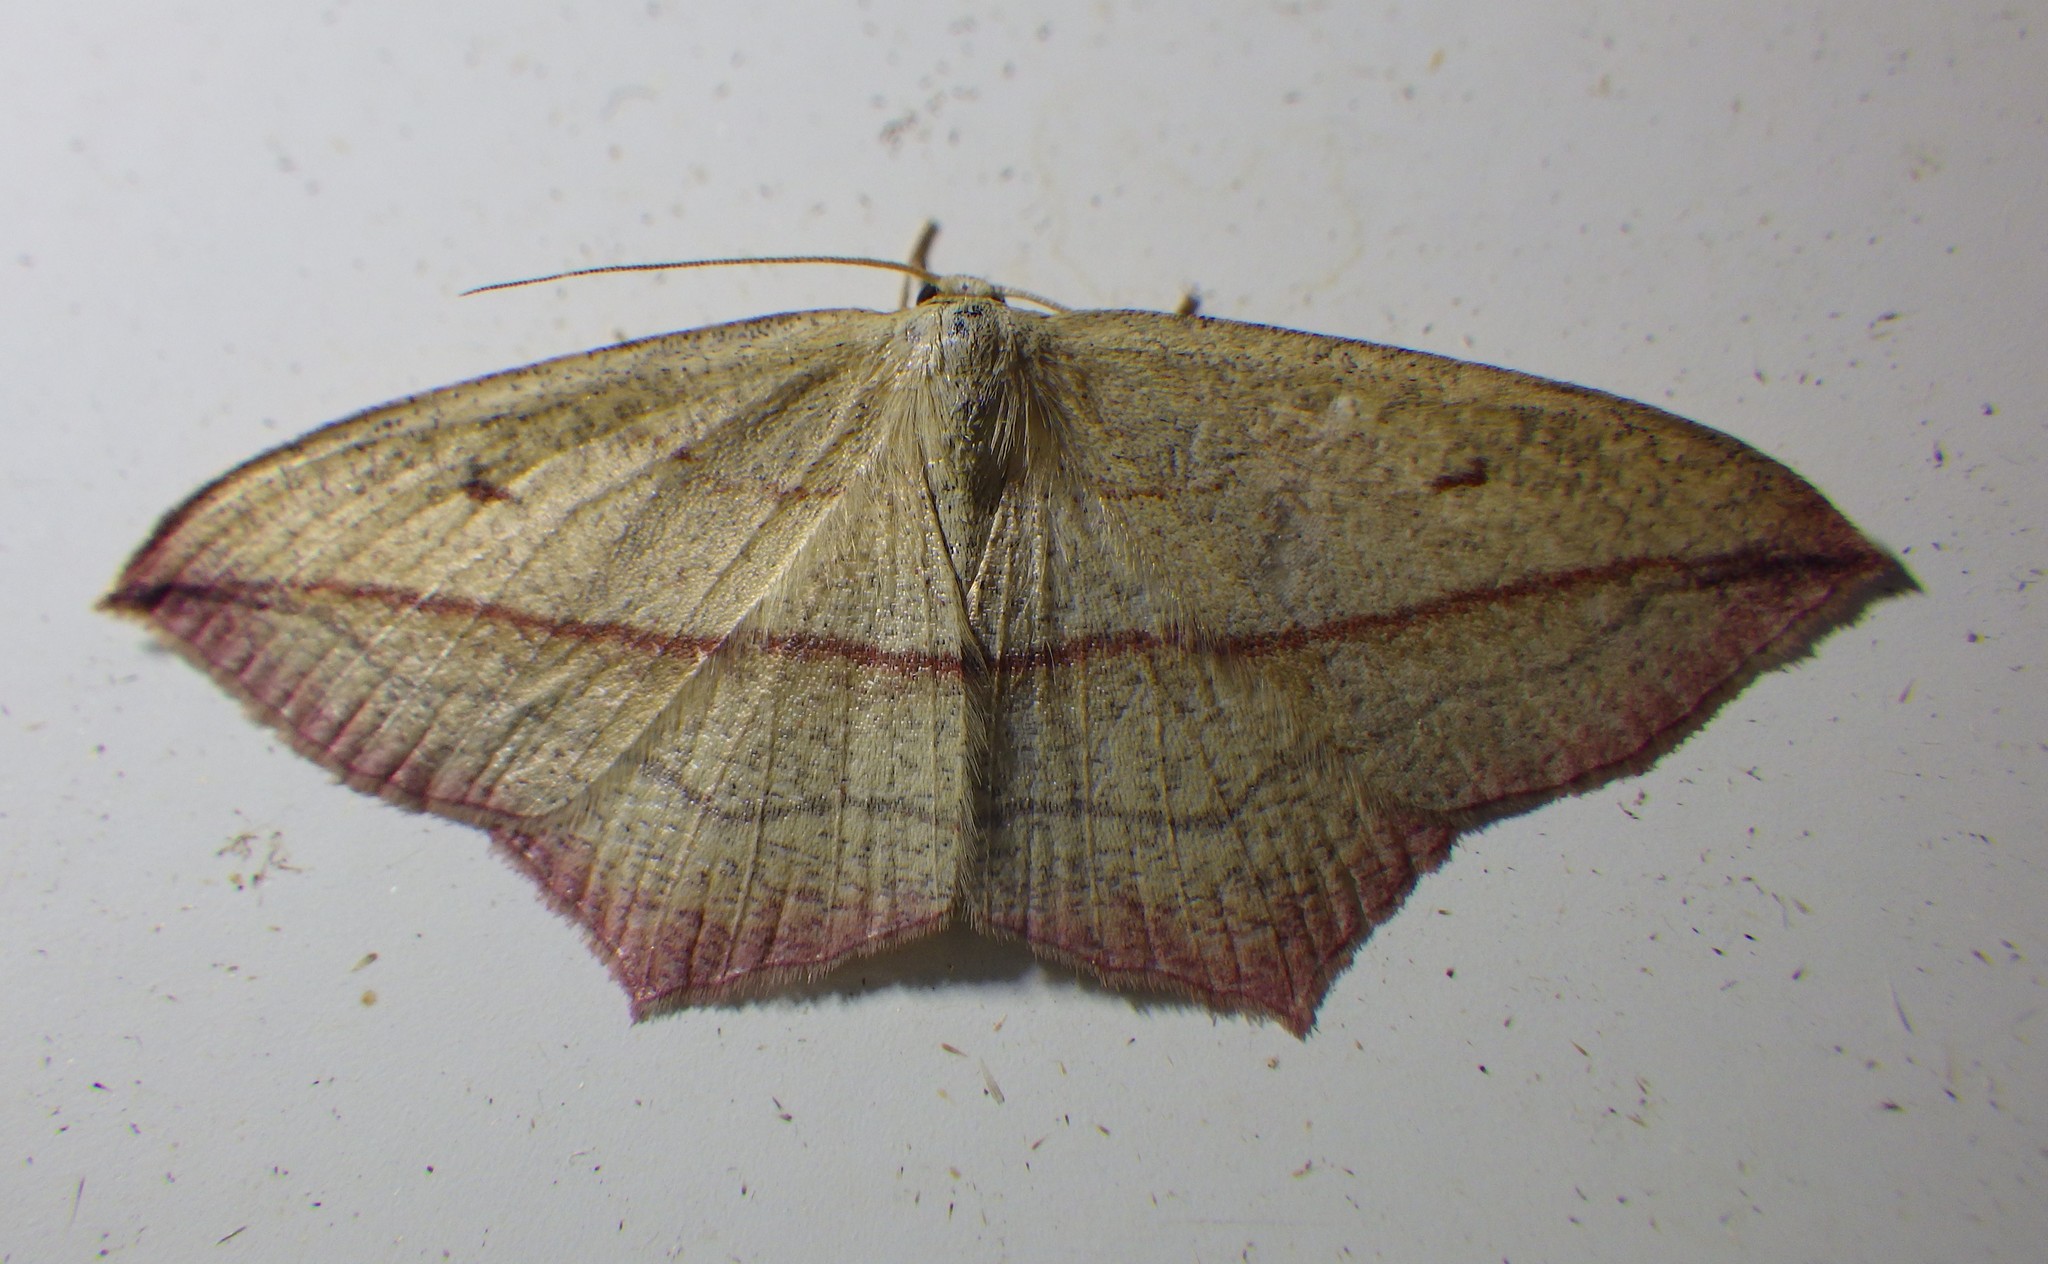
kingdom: Animalia
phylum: Arthropoda
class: Insecta
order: Lepidoptera
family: Geometridae
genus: Timandra
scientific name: Timandra comae
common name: Blood-vein
